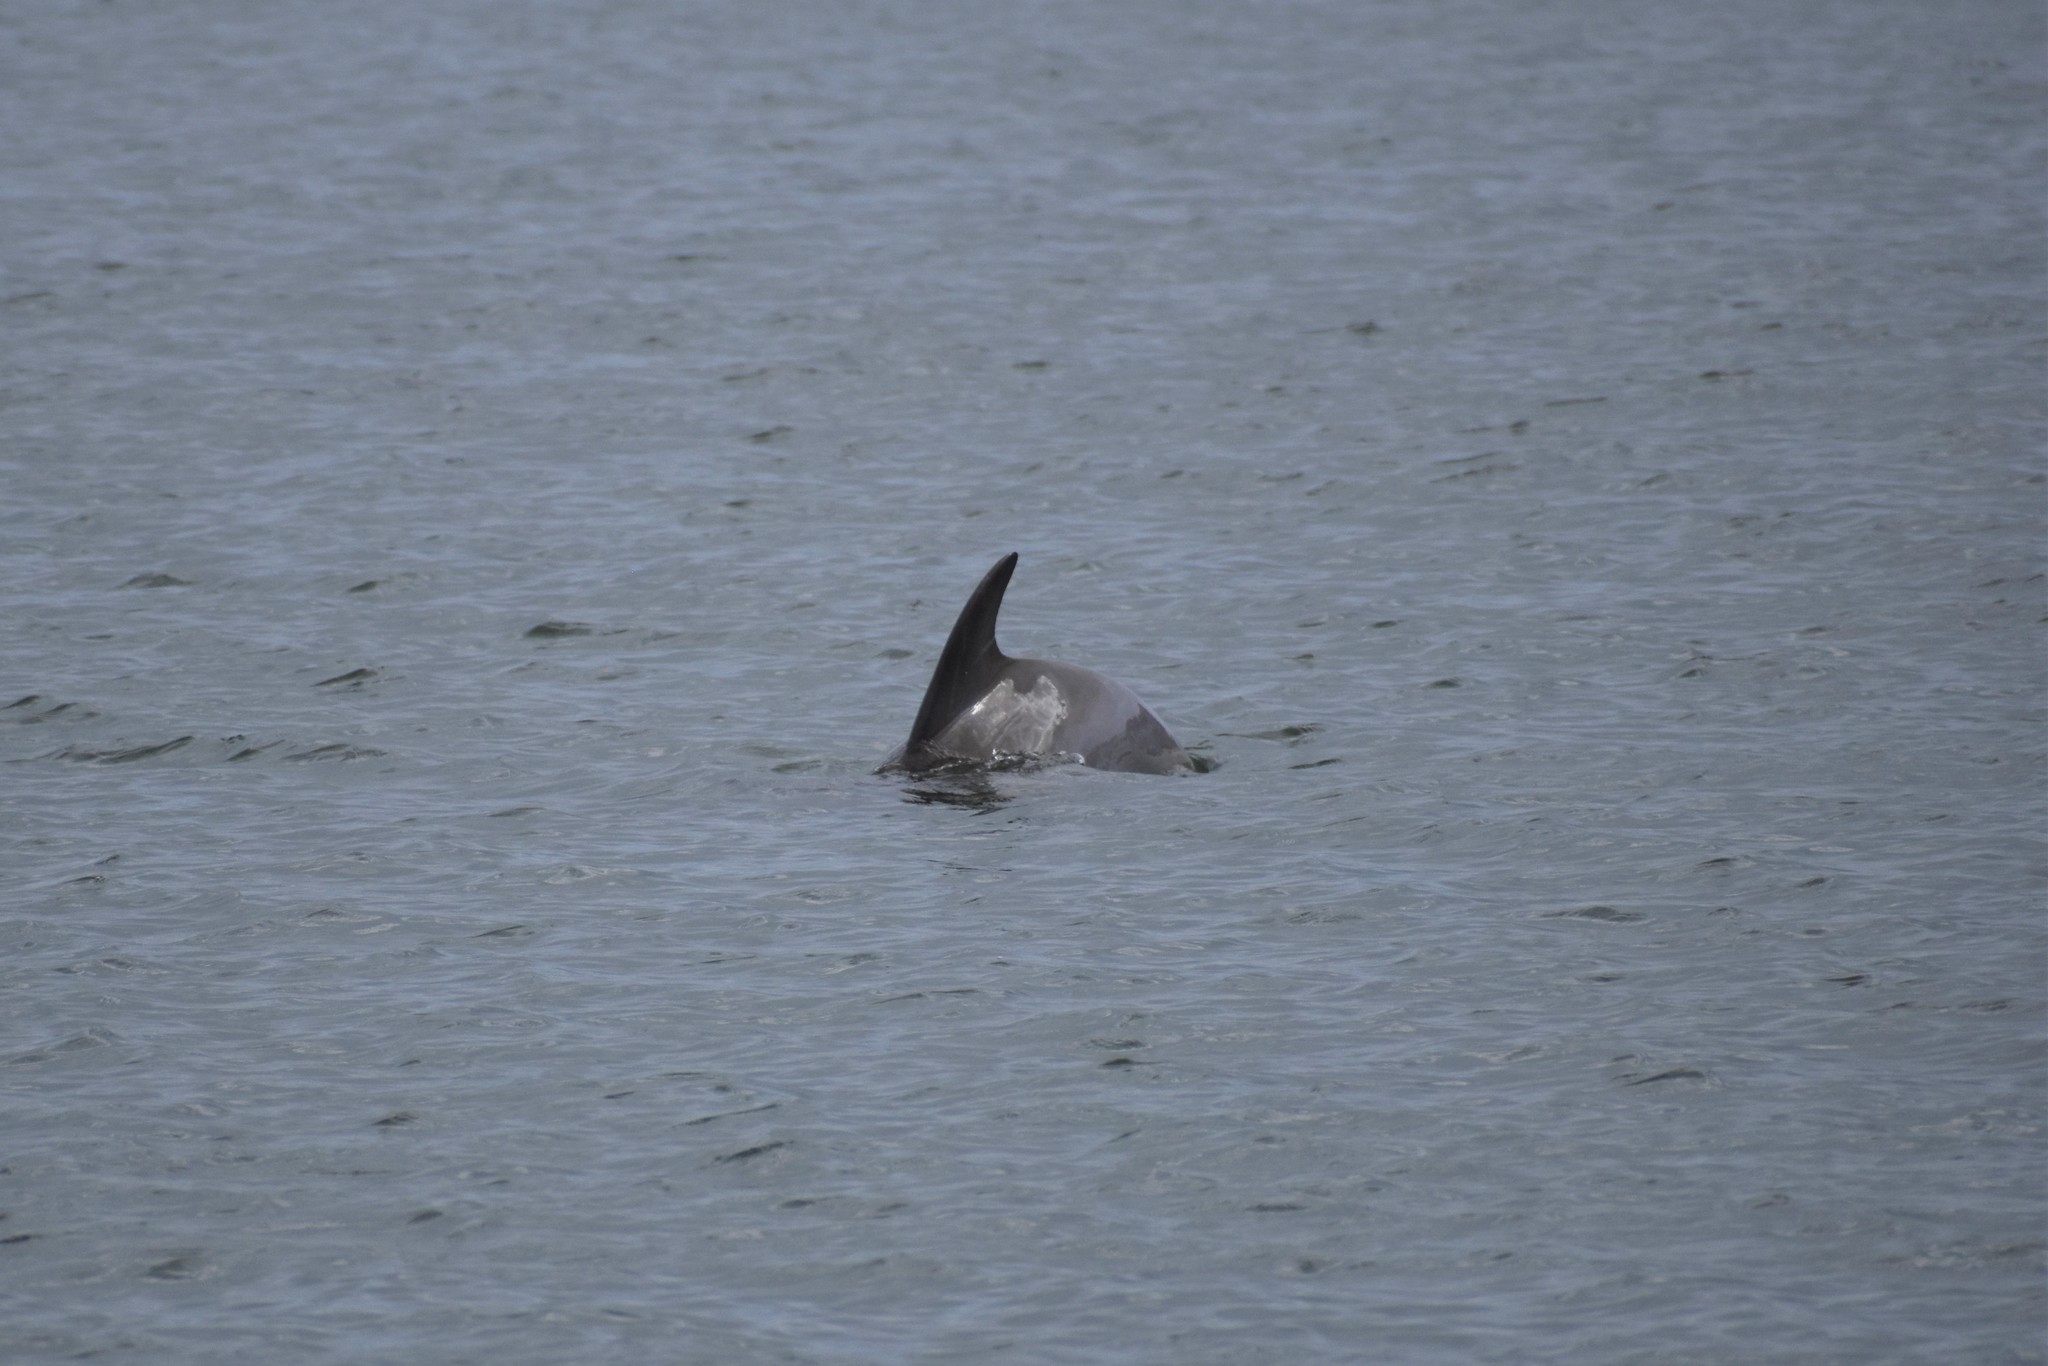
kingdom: Animalia
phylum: Chordata
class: Mammalia
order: Cetacea
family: Delphinidae
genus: Tursiops
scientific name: Tursiops truncatus
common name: Bottlenose dolphin
